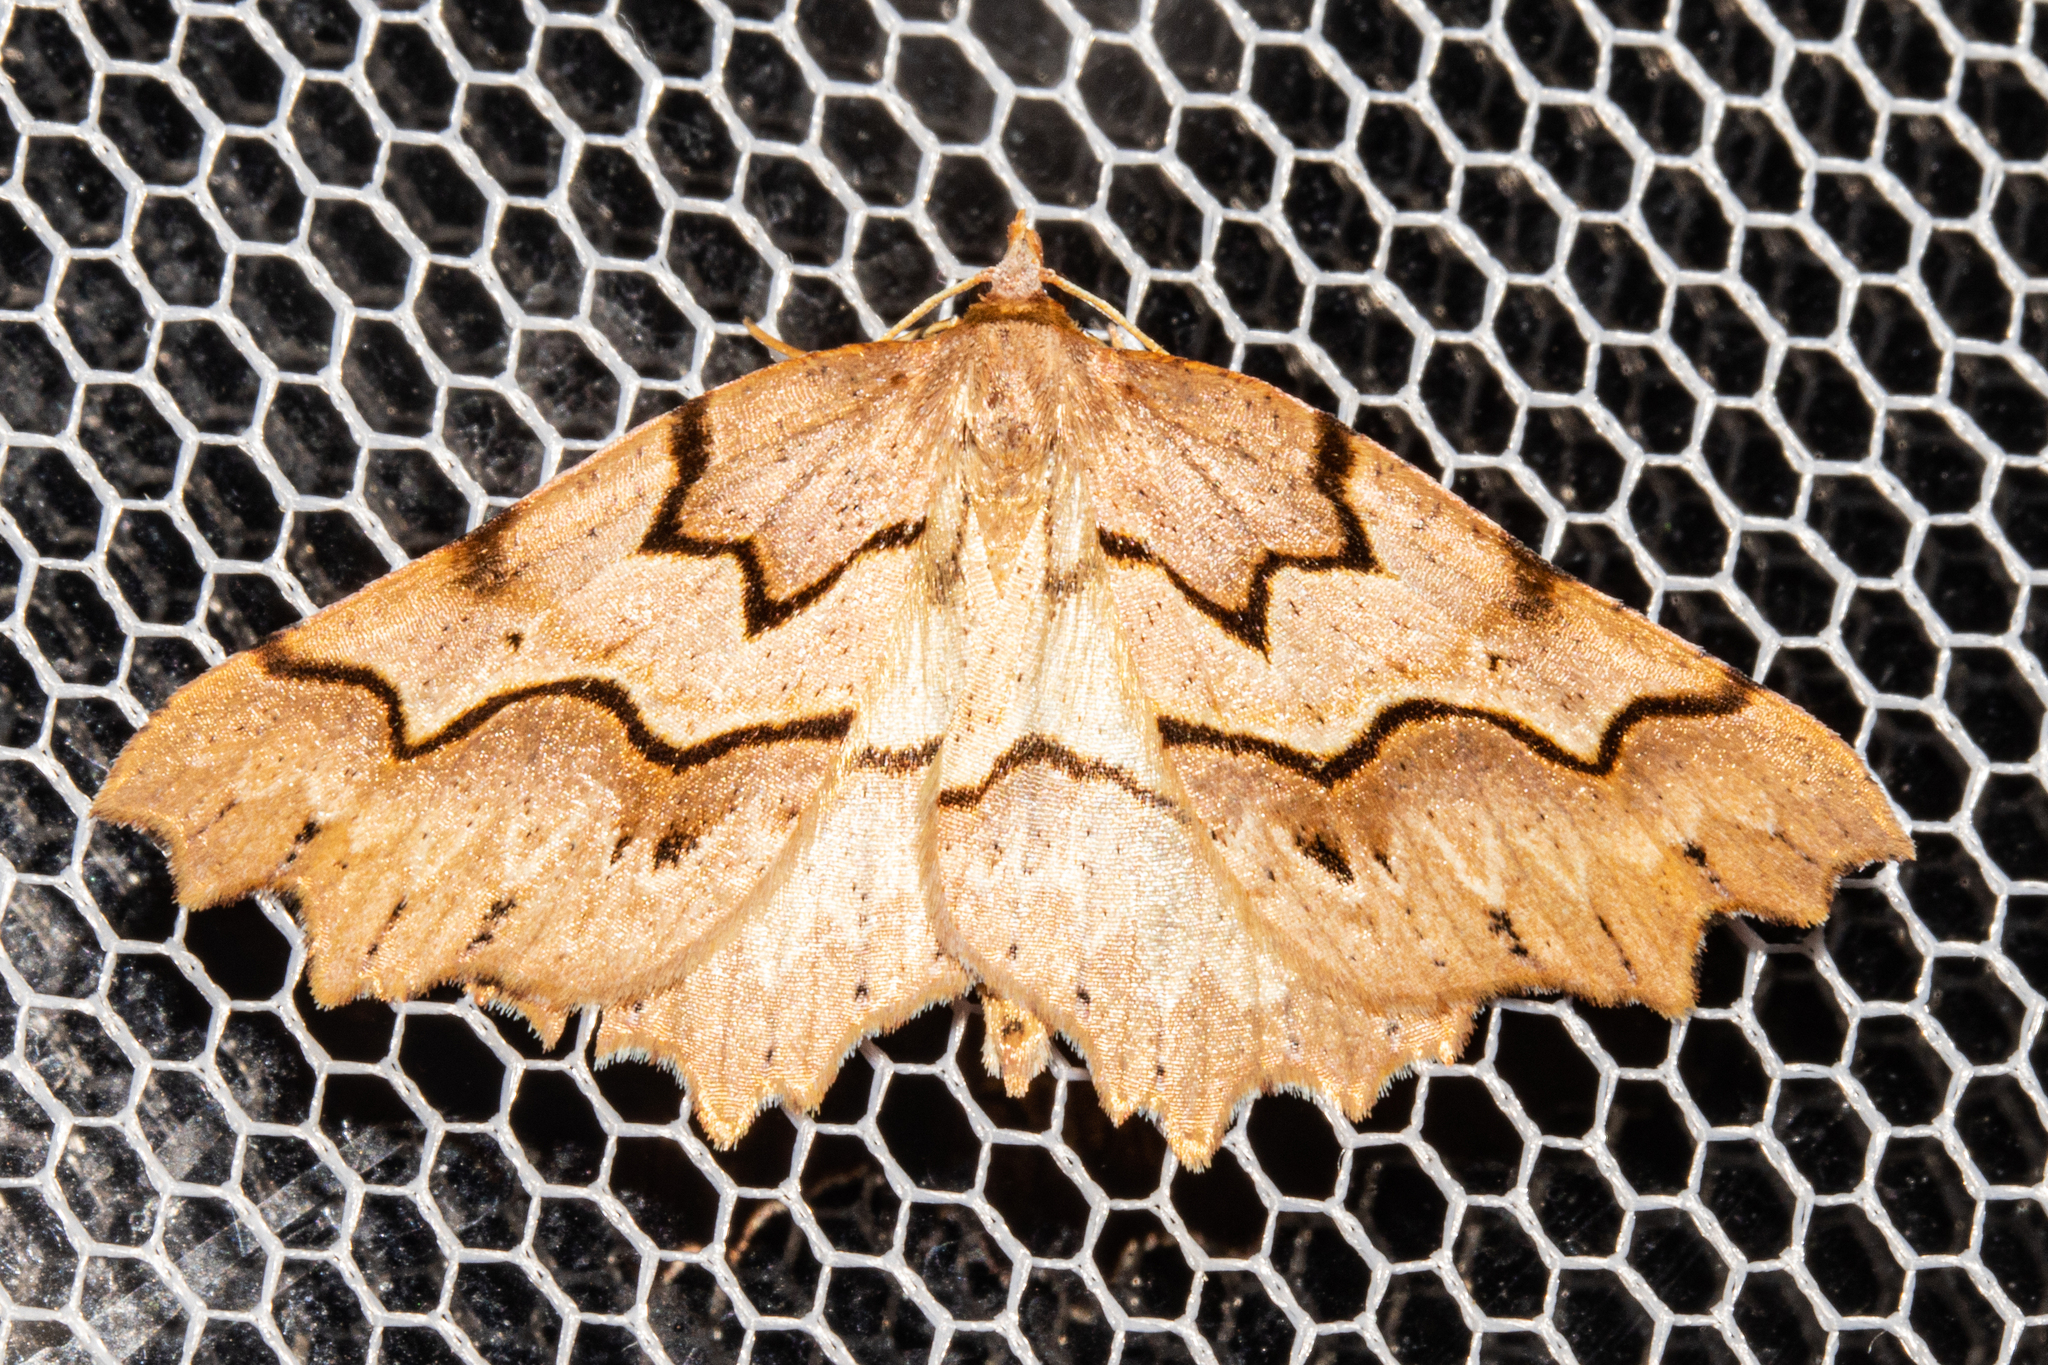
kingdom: Animalia
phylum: Arthropoda
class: Insecta
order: Lepidoptera
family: Geometridae
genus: Ischalis
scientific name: Ischalis fortinata
